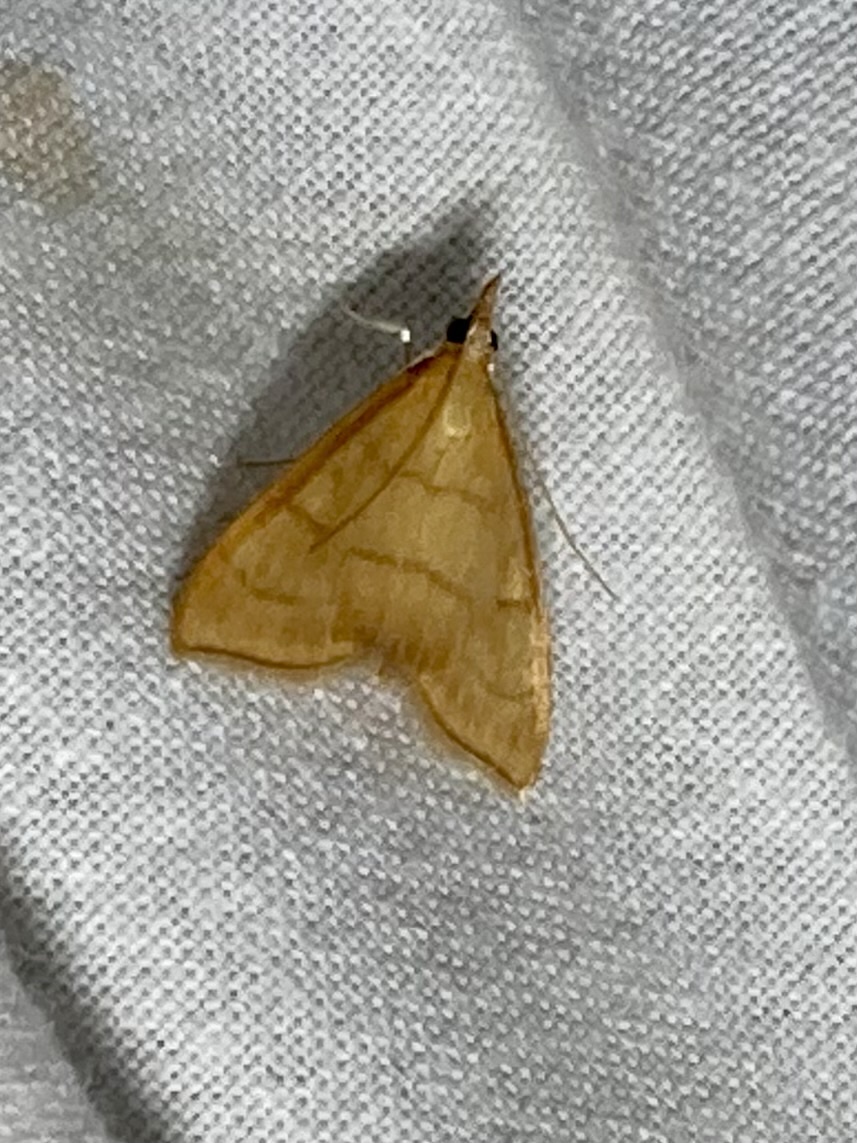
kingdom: Animalia
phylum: Arthropoda
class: Insecta
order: Lepidoptera
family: Crambidae
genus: Anania
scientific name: Anania crocealis
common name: Ochreous pearl
